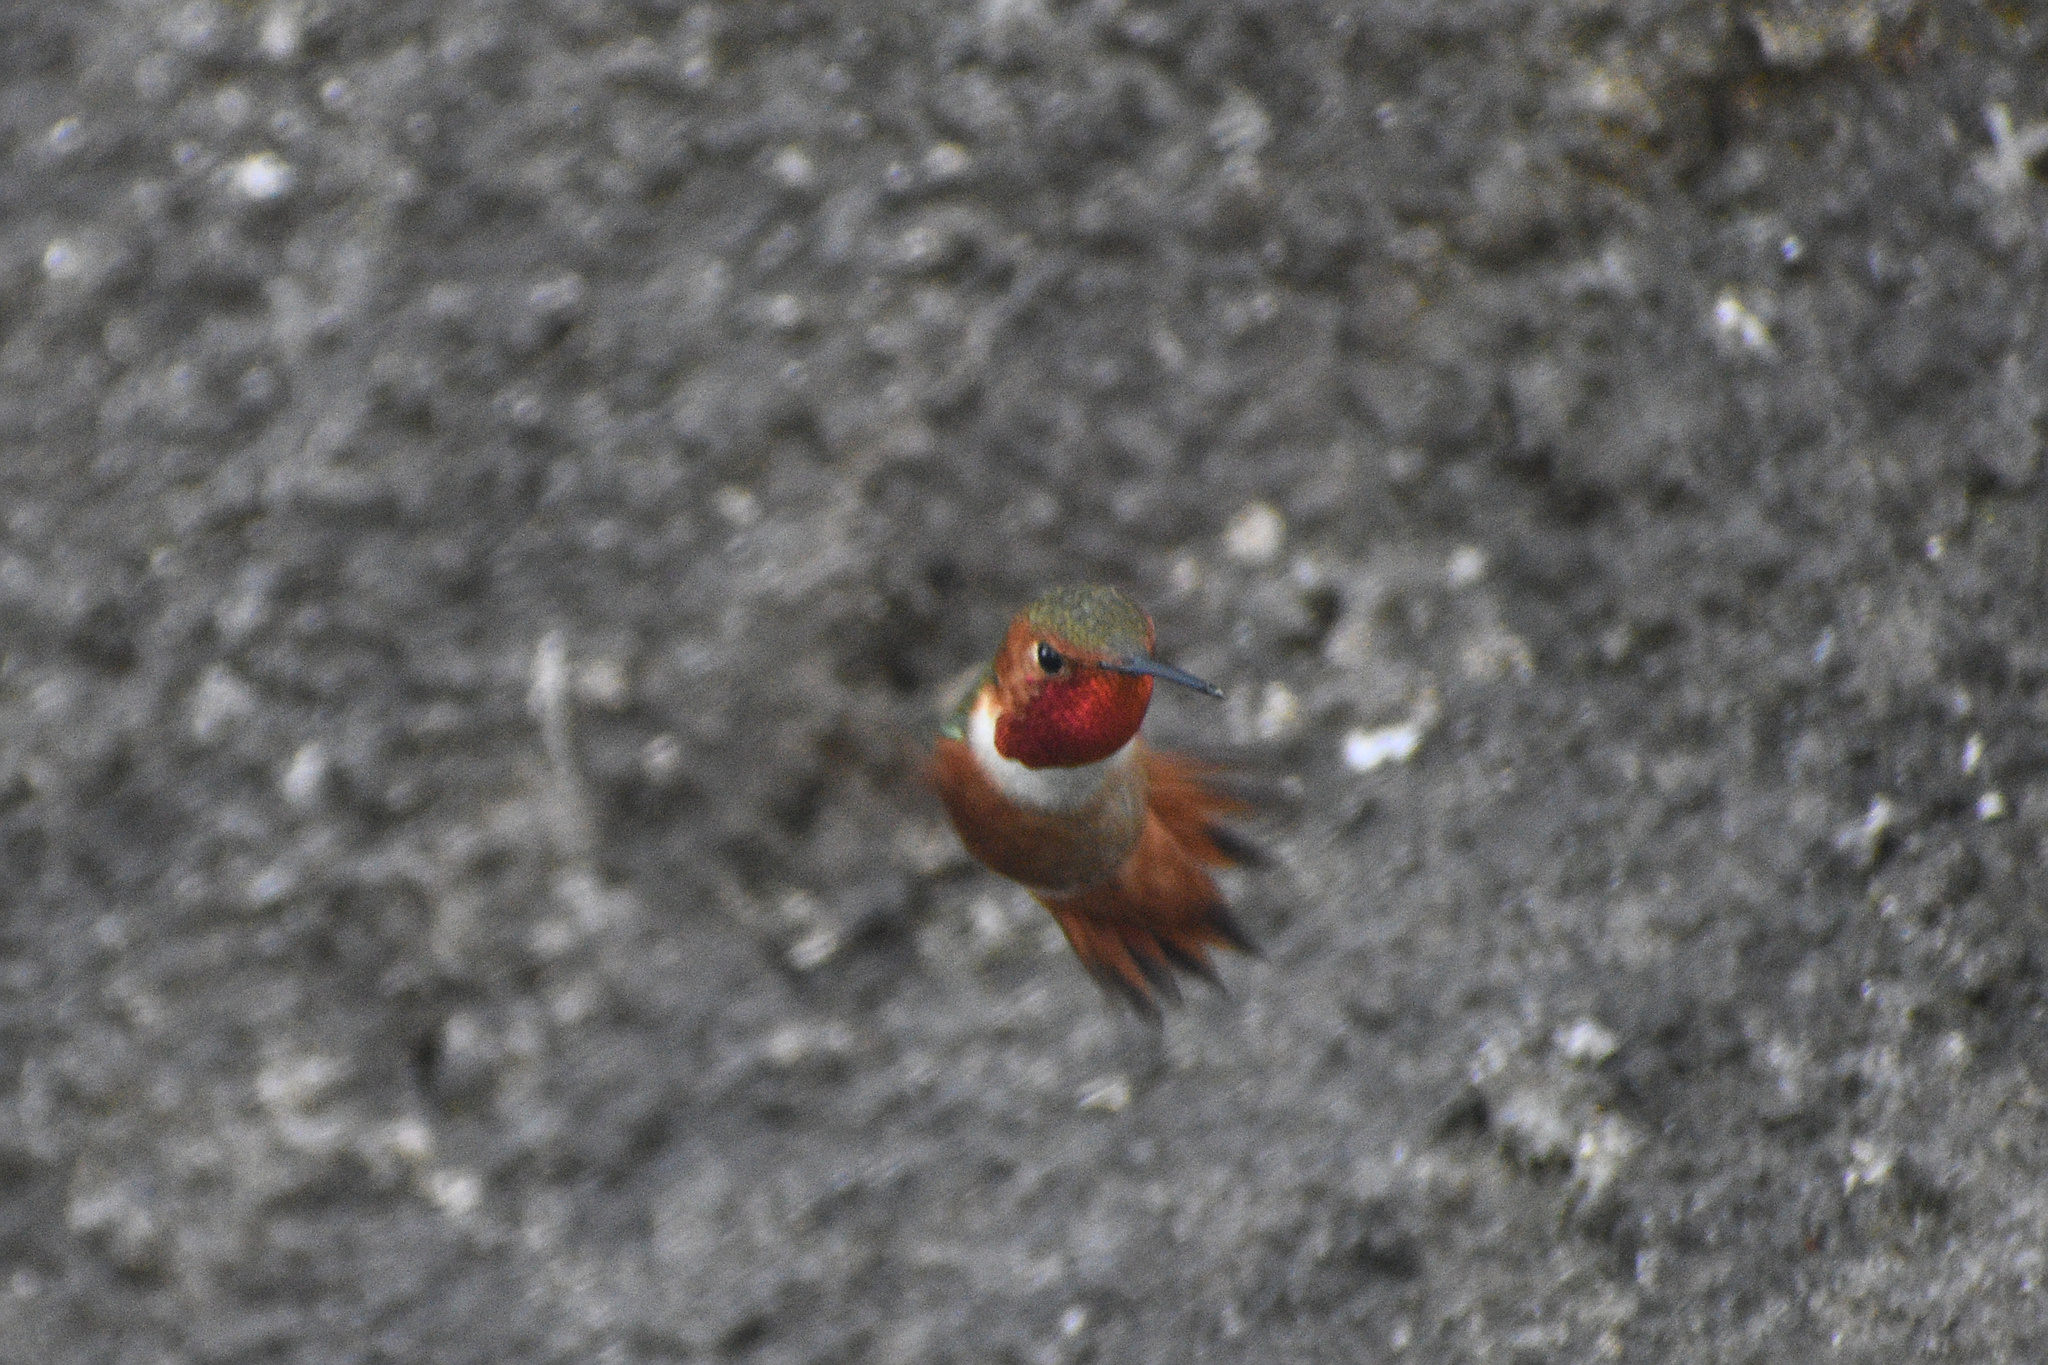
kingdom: Animalia
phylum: Chordata
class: Aves
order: Apodiformes
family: Trochilidae
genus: Selasphorus
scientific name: Selasphorus sasin
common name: Allen's hummingbird
